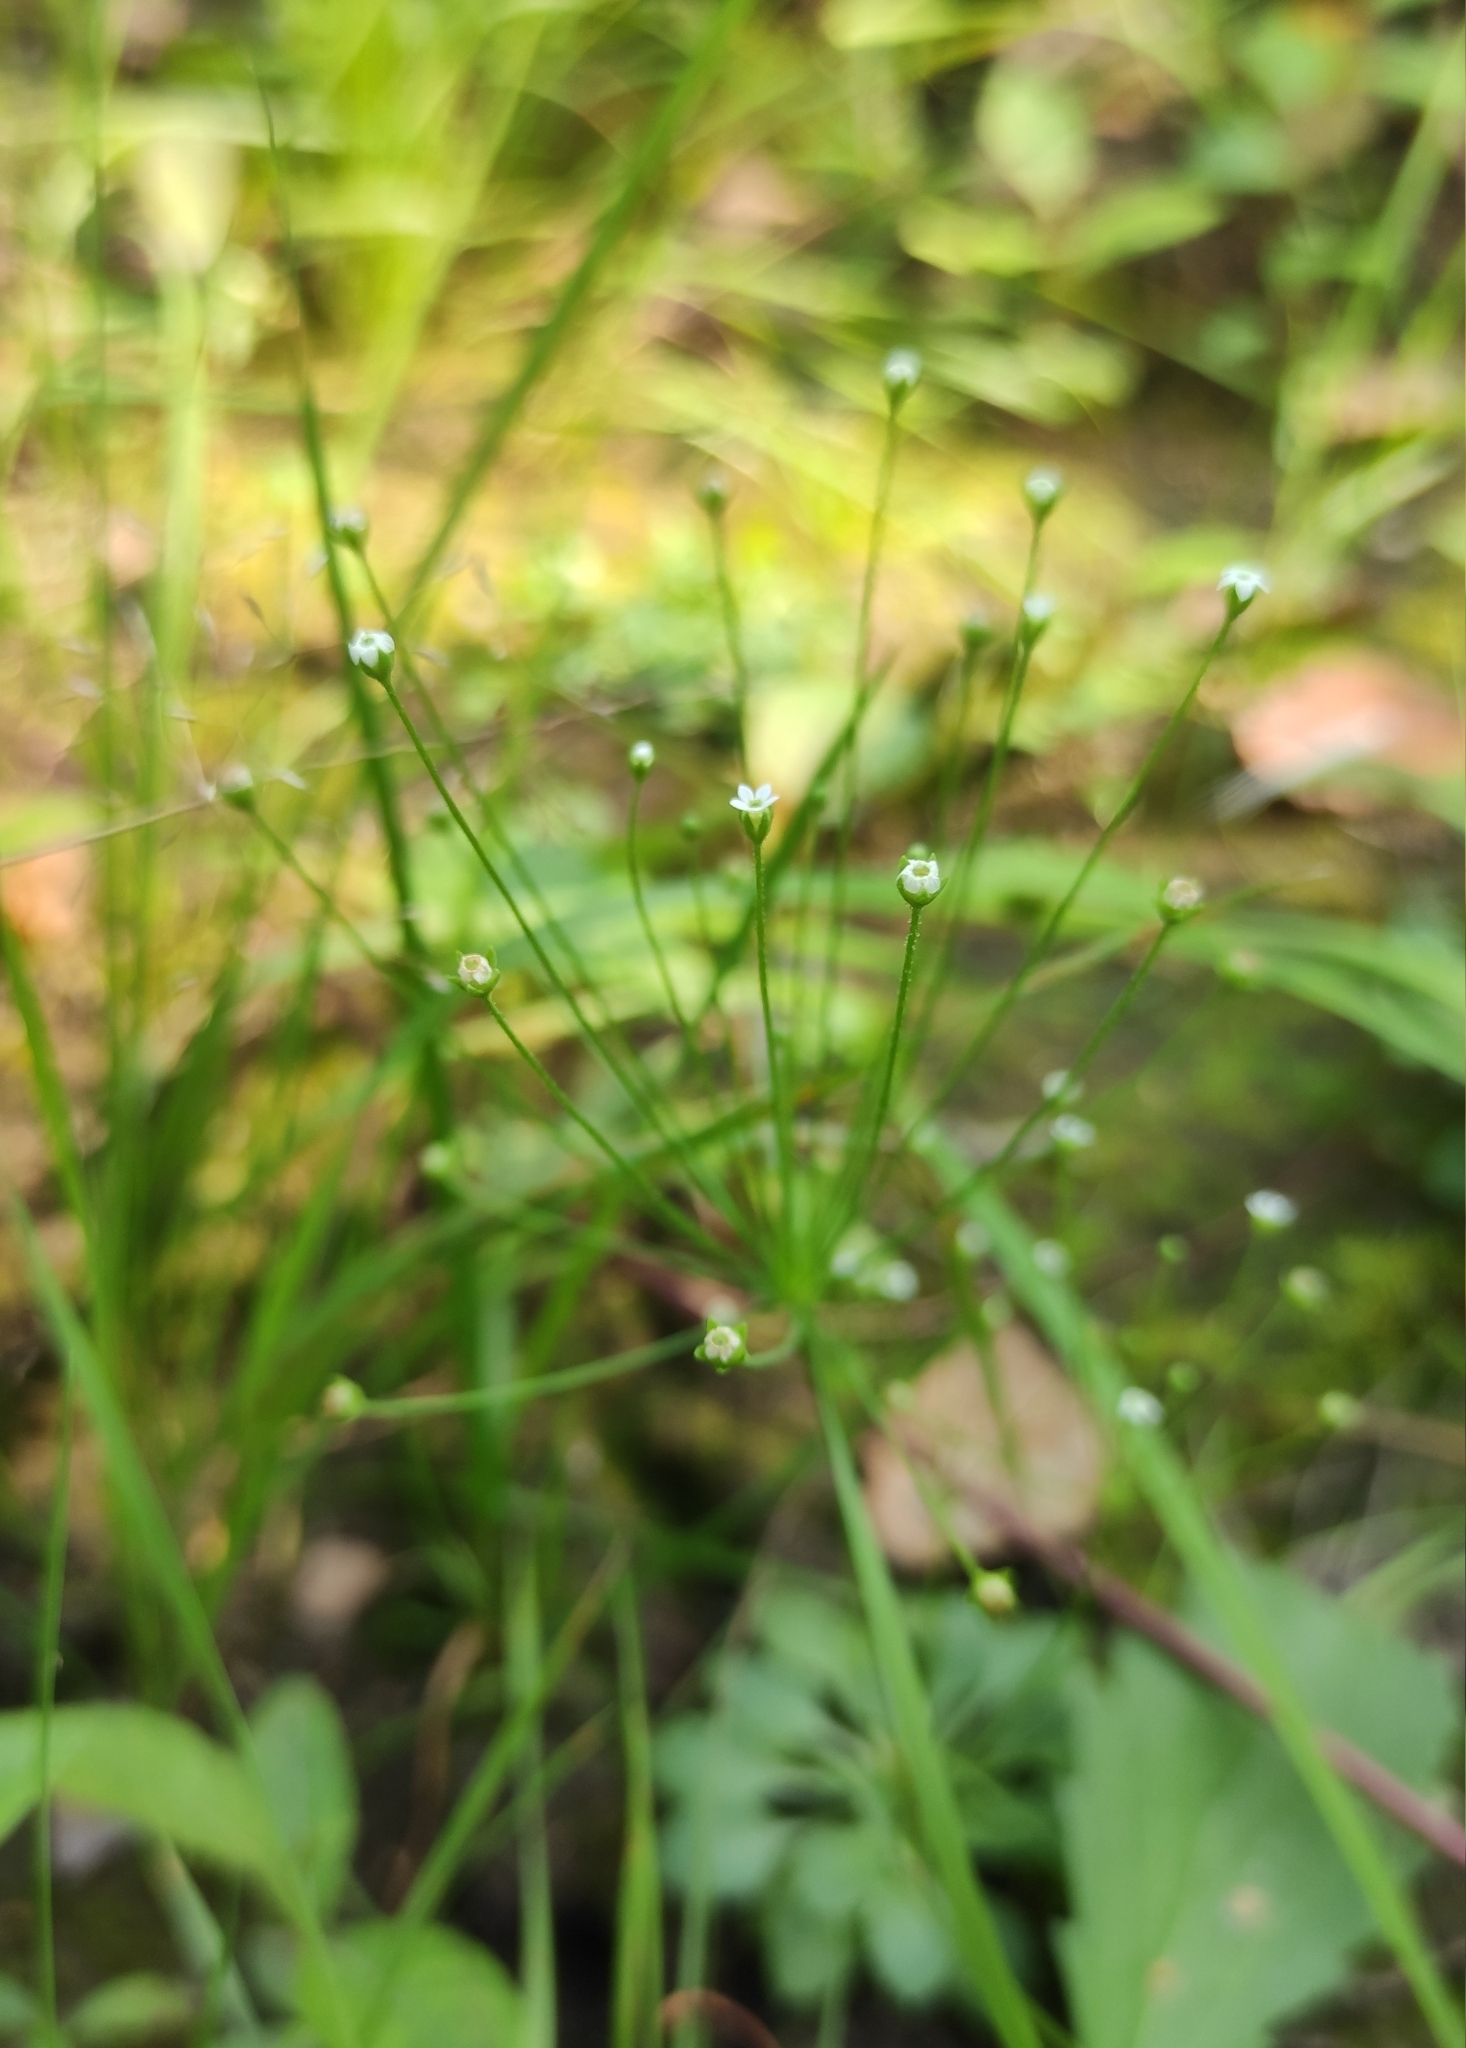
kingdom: Plantae
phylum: Tracheophyta
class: Magnoliopsida
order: Ericales
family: Primulaceae
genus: Androsace
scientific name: Androsace filiformis
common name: Filiform rock jasmine
